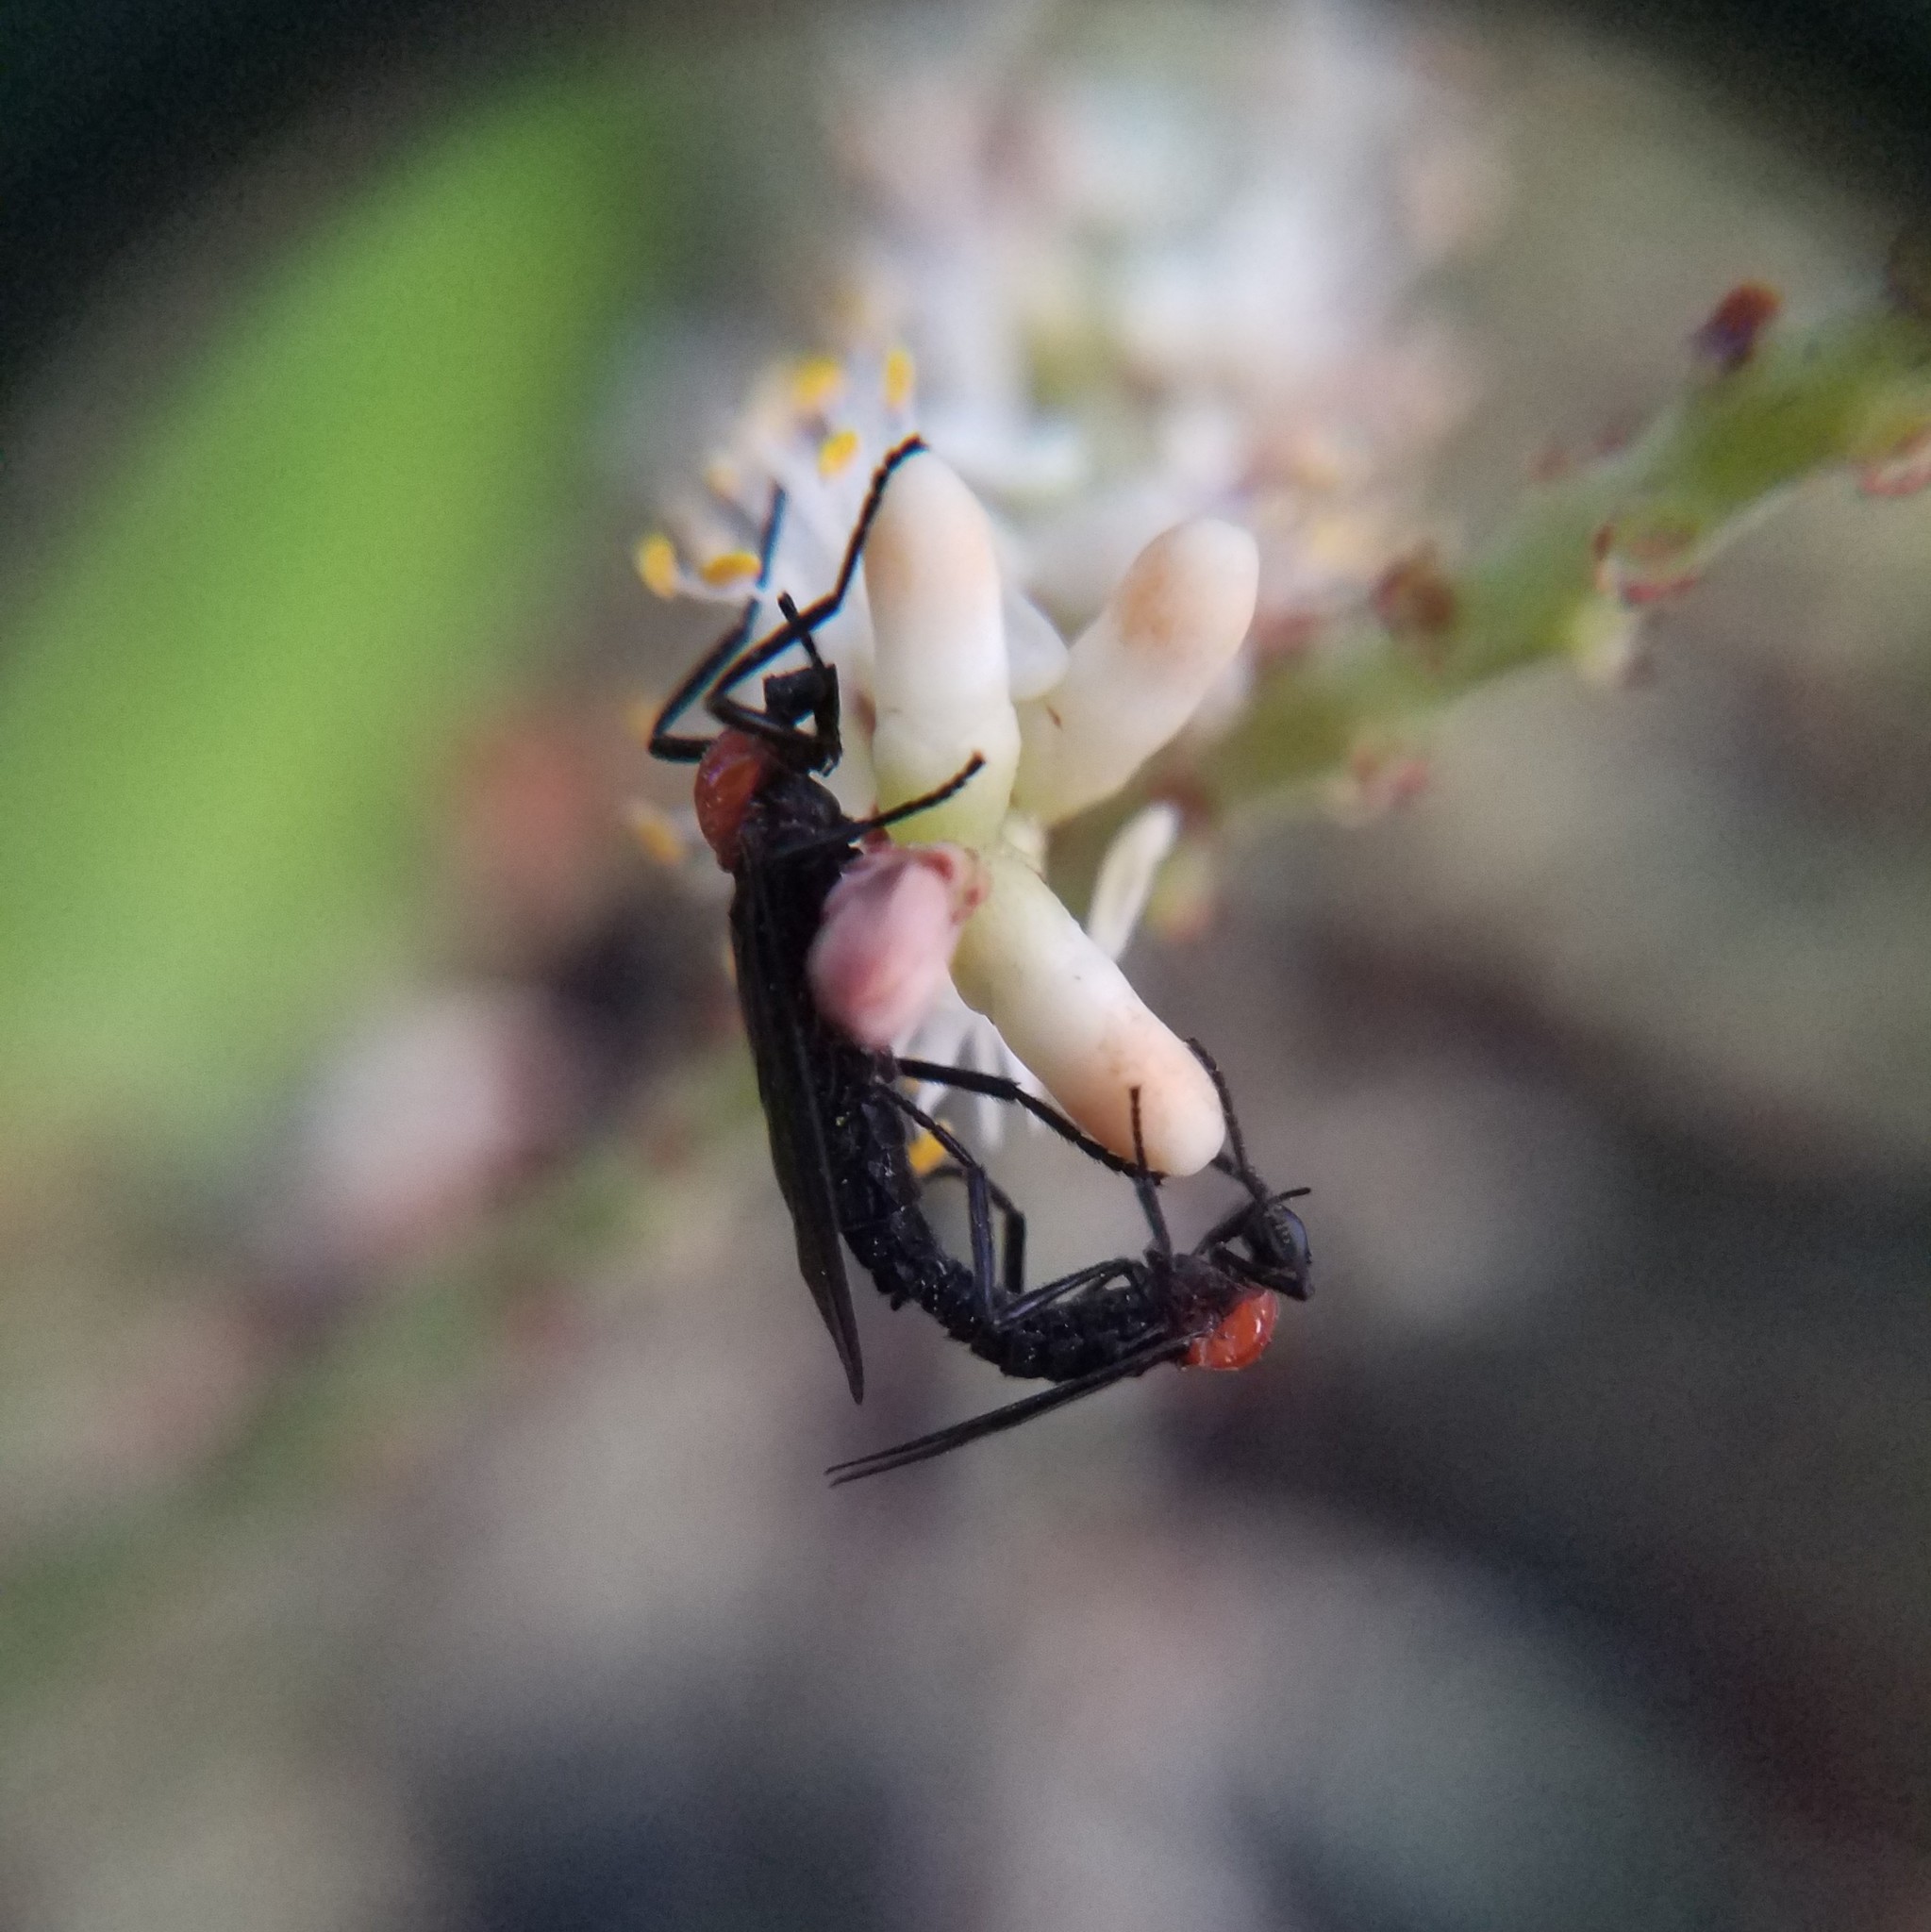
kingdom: Animalia
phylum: Arthropoda
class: Insecta
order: Diptera
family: Bibionidae
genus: Plecia
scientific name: Plecia nearctica
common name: March fly
